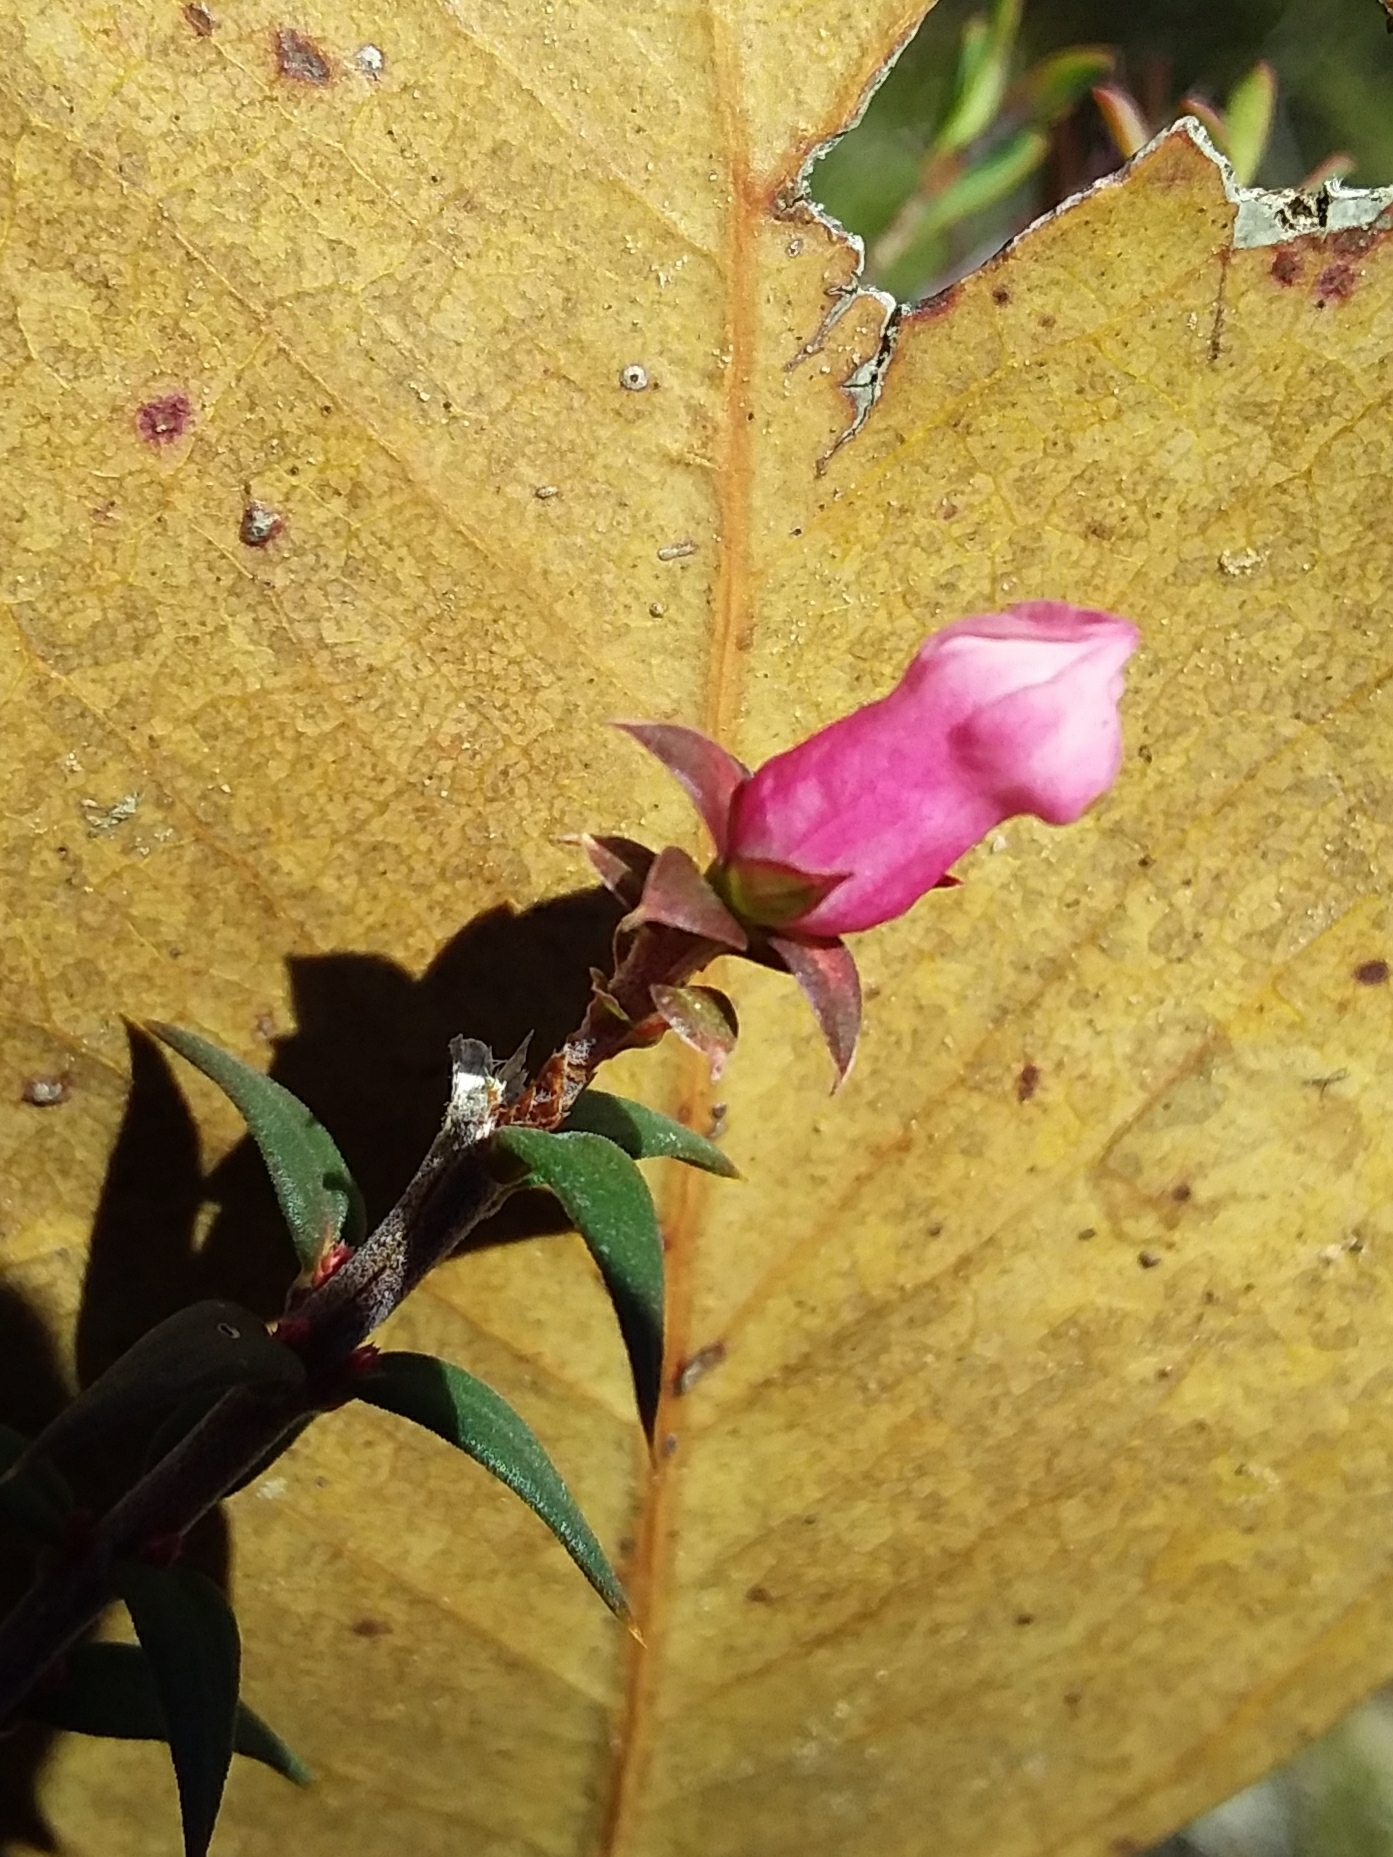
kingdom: Plantae
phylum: Tracheophyta
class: Magnoliopsida
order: Ericales
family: Ericaceae
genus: Epacris
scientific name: Epacris impressa
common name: Common-heath
